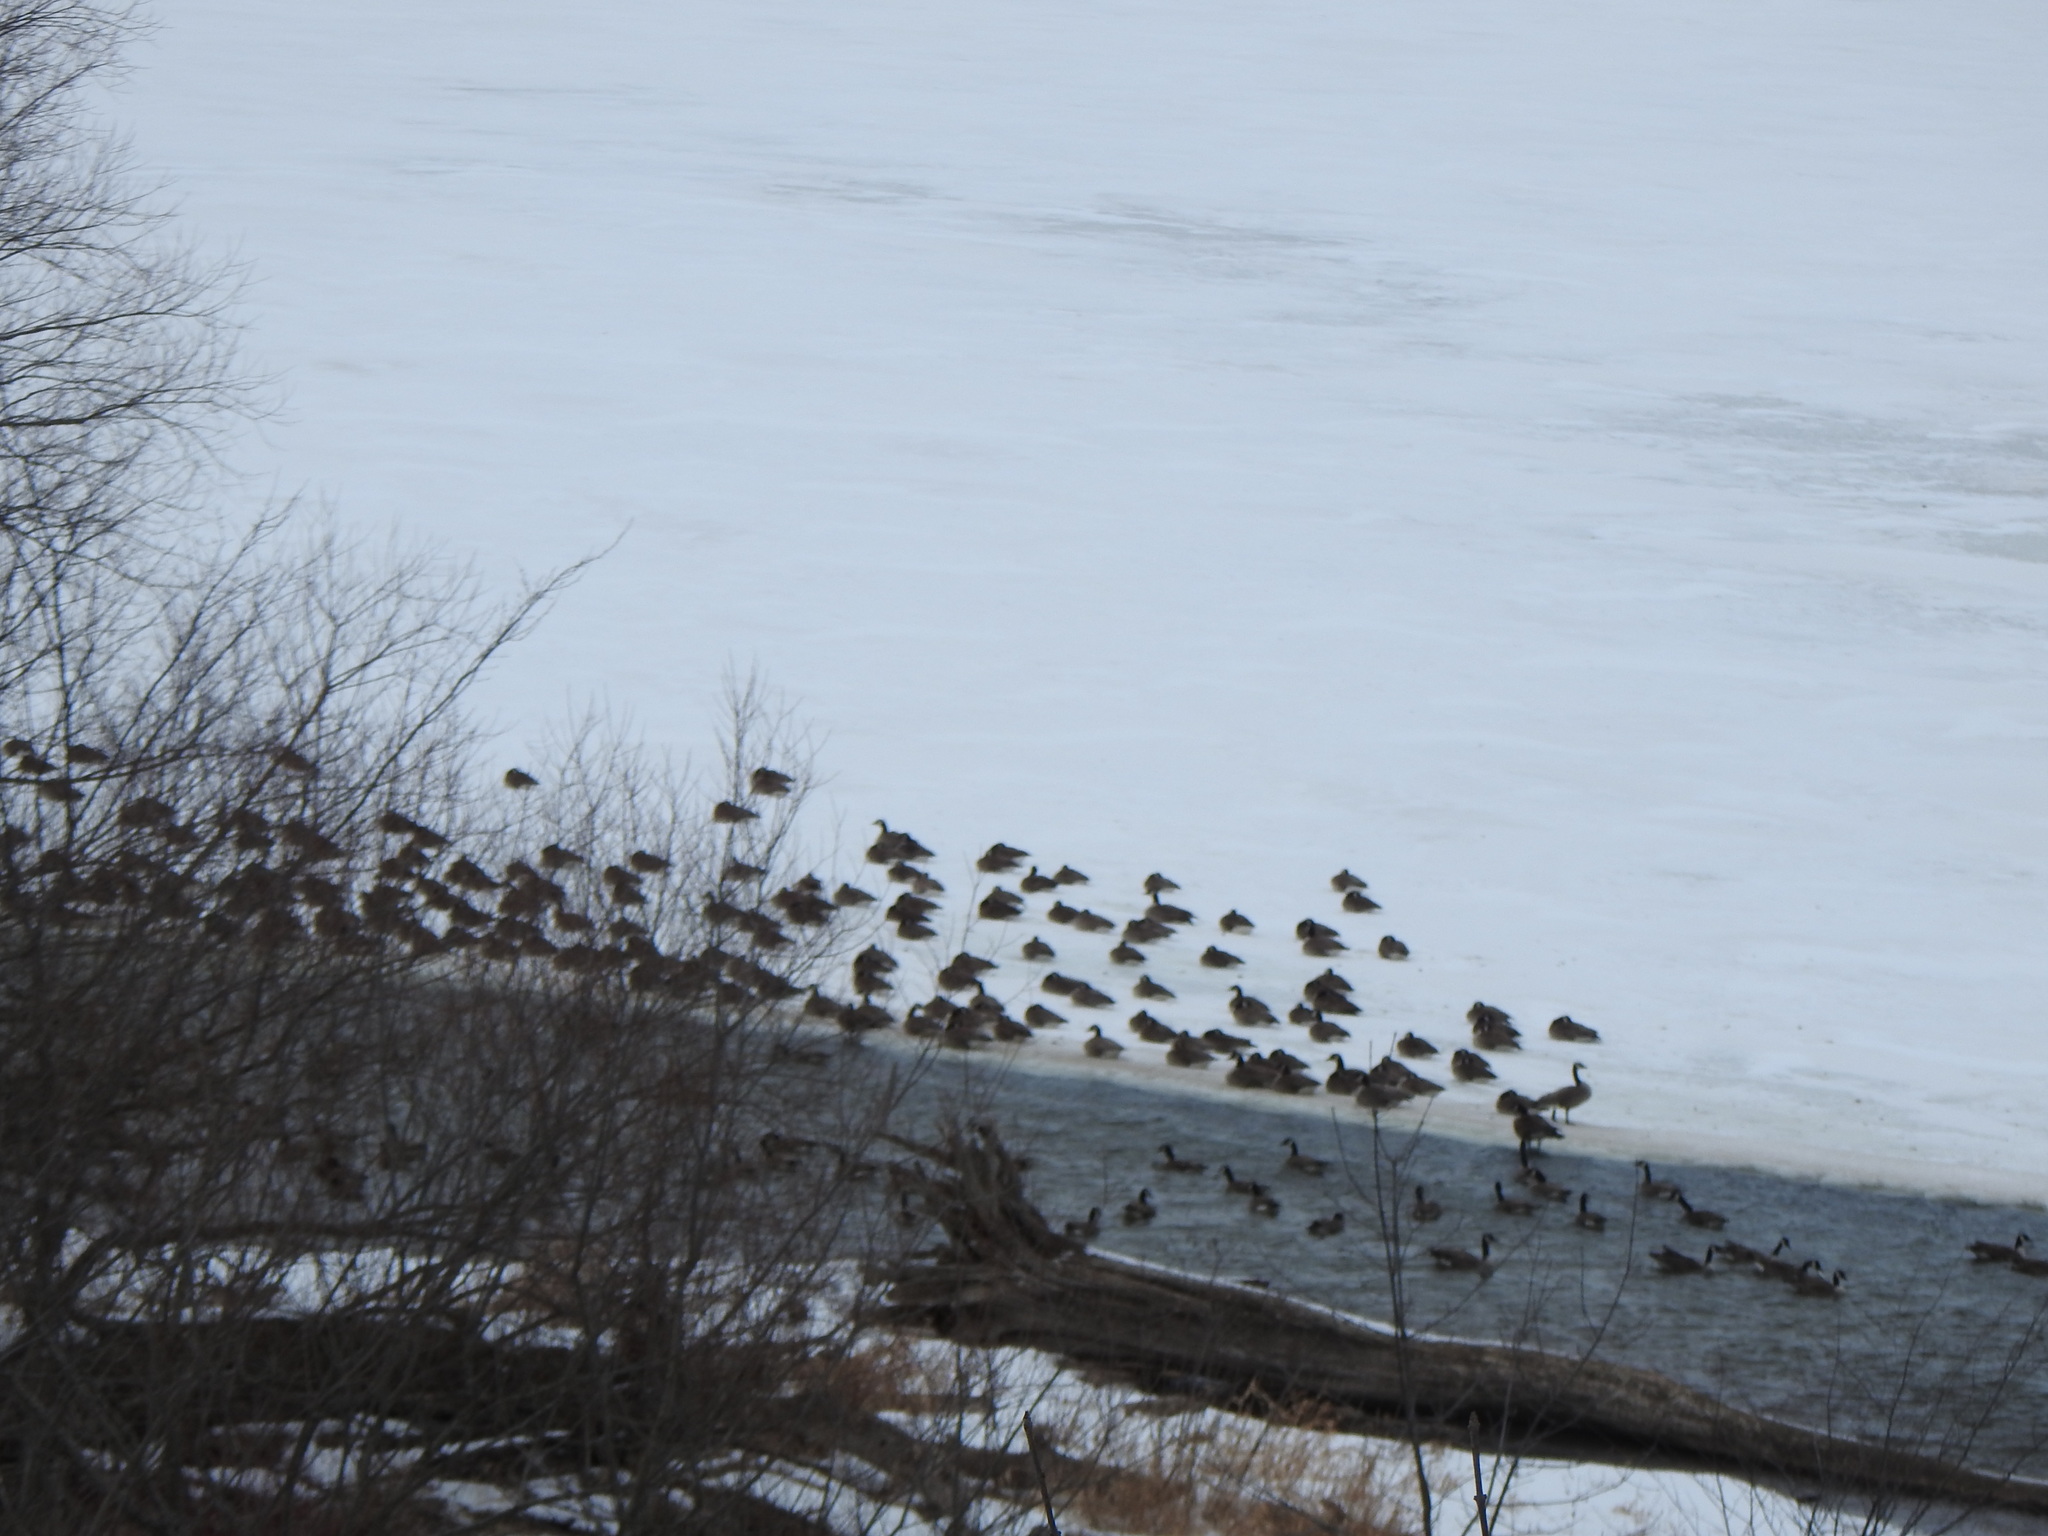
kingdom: Animalia
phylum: Chordata
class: Aves
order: Anseriformes
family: Anatidae
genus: Branta
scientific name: Branta canadensis
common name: Canada goose
